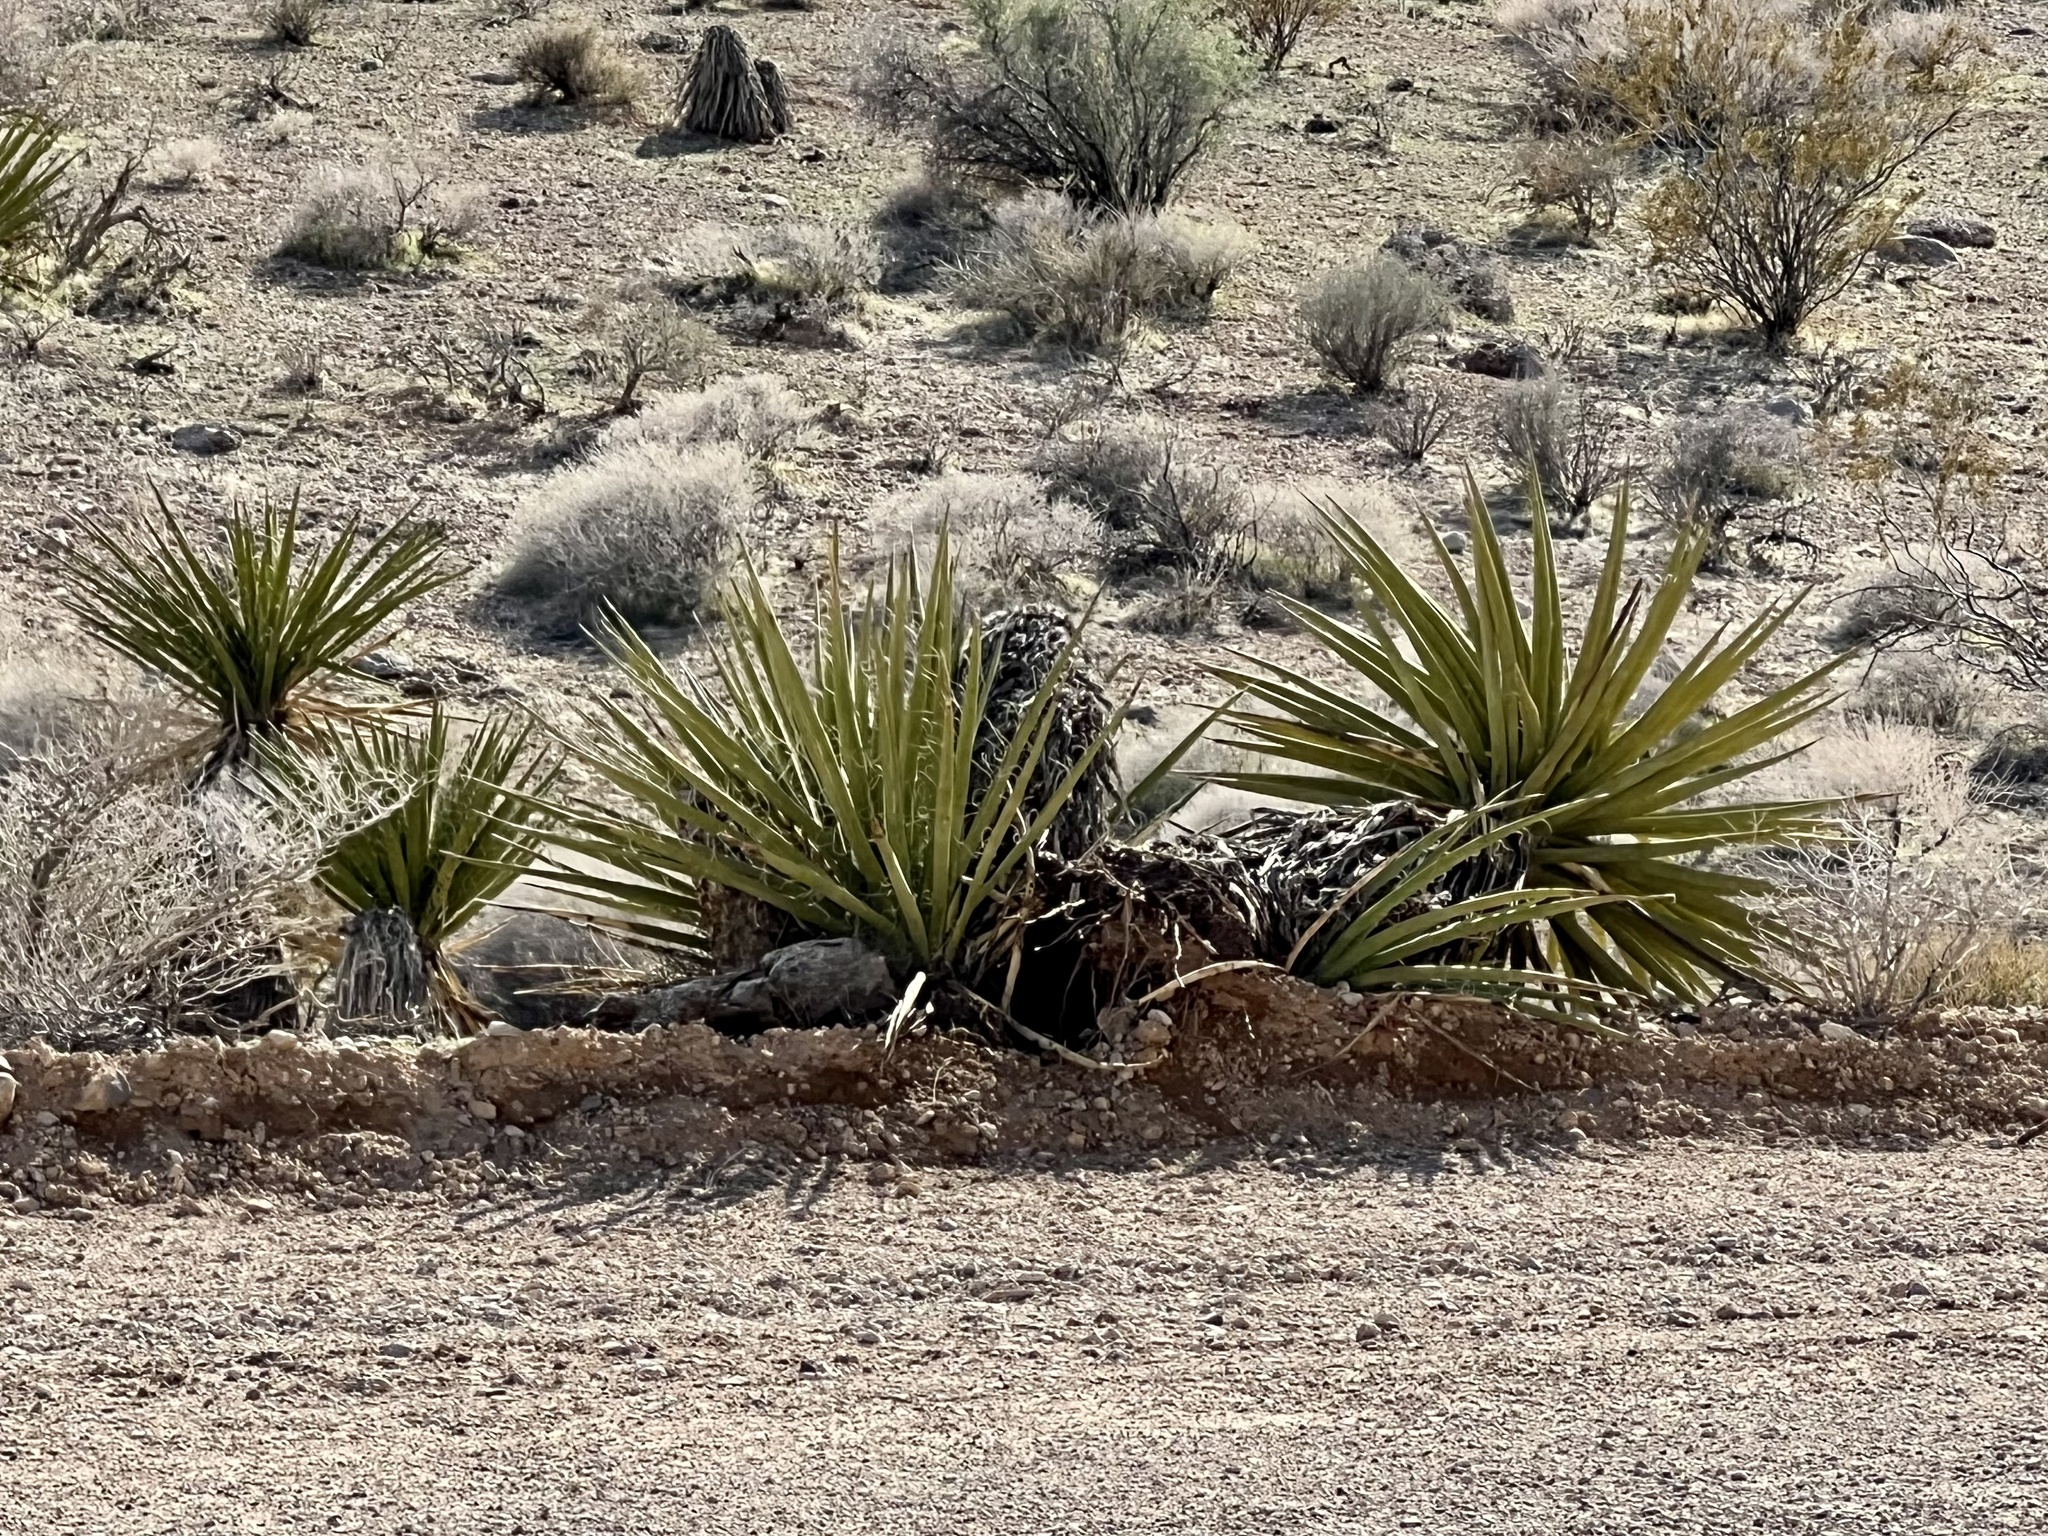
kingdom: Plantae
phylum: Tracheophyta
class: Liliopsida
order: Asparagales
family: Asparagaceae
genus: Yucca
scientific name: Yucca schidigera
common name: Mojave yucca
